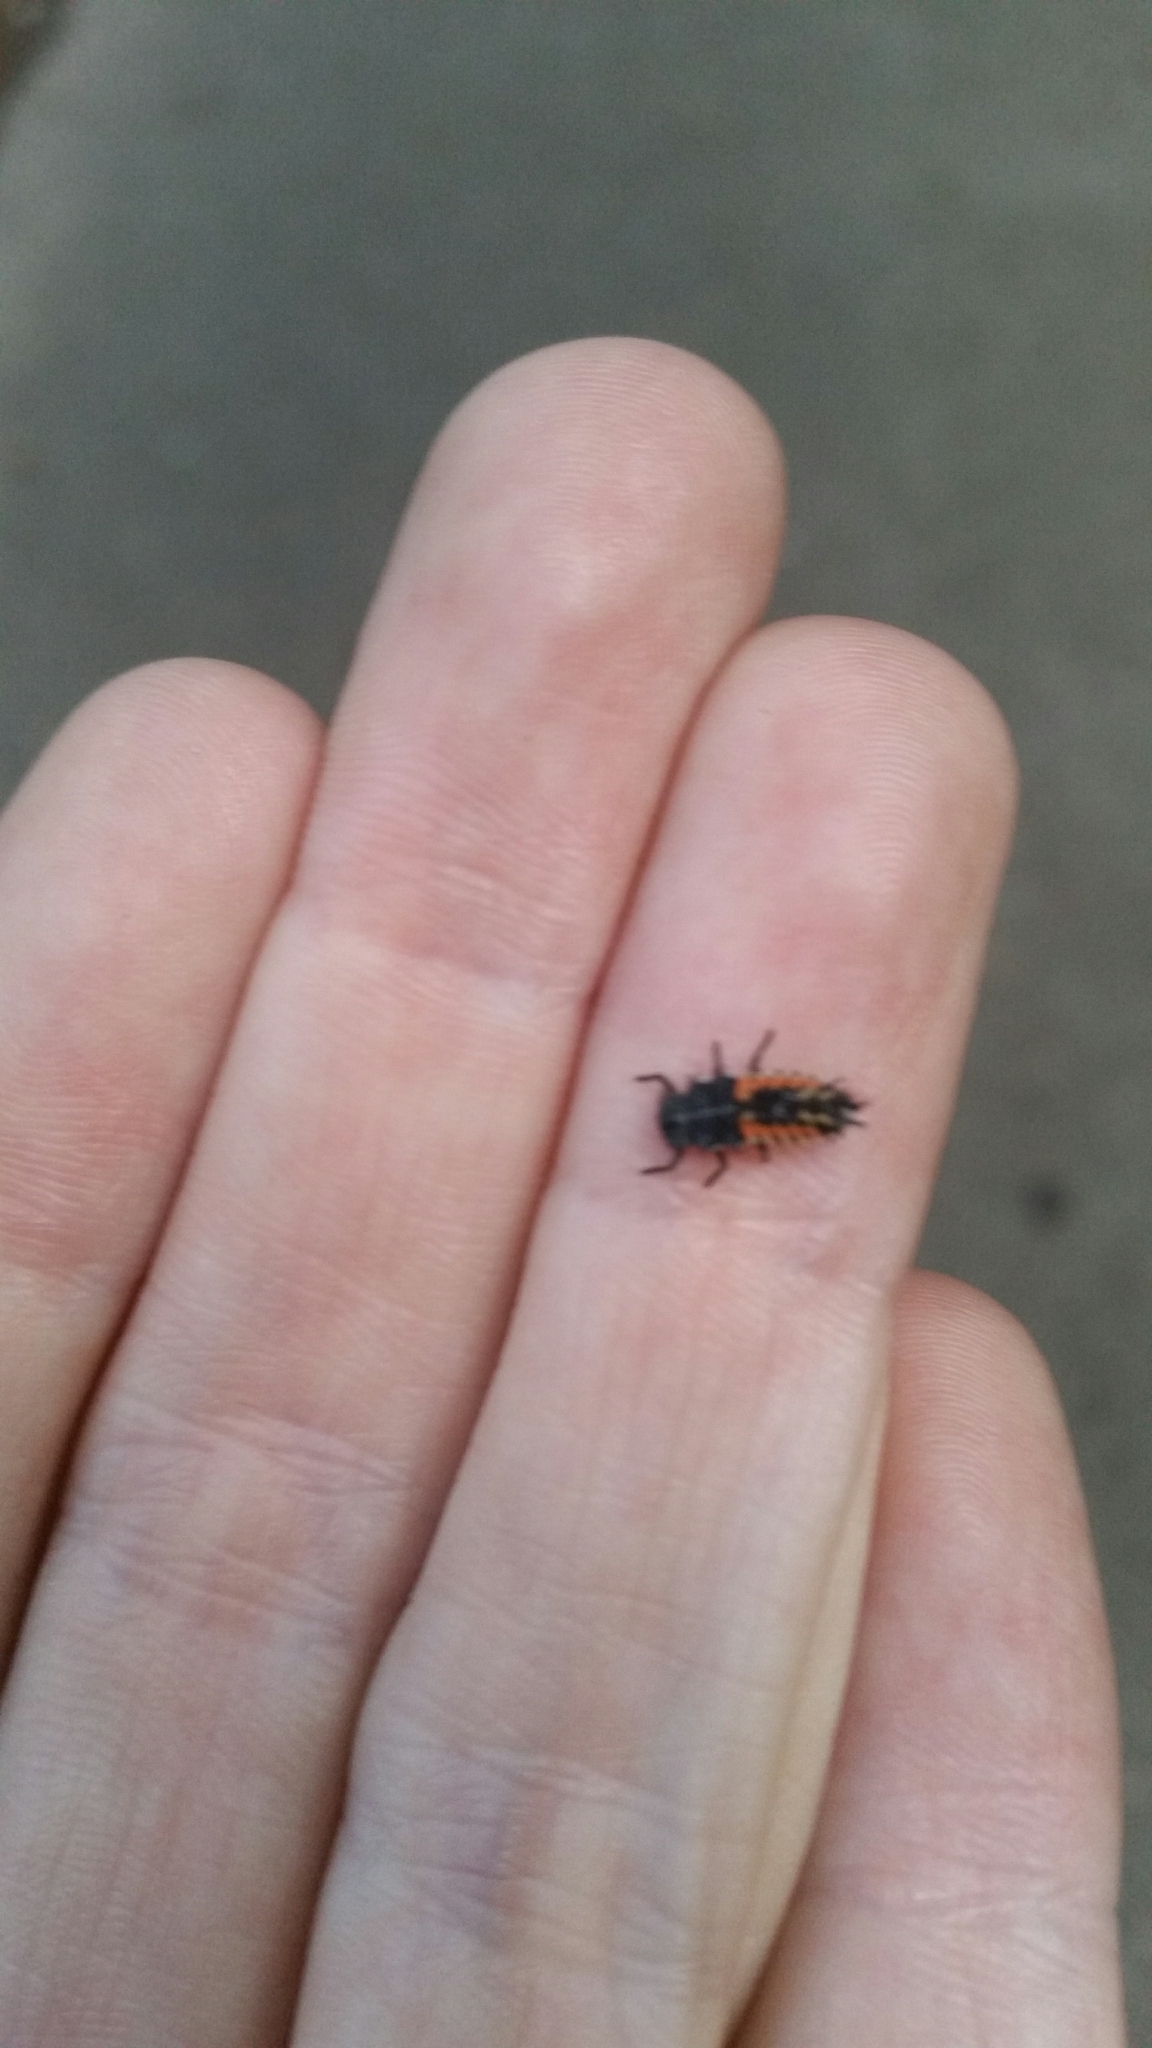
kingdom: Animalia
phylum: Arthropoda
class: Insecta
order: Coleoptera
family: Coccinellidae
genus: Harmonia
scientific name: Harmonia axyridis
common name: Harlequin ladybird
